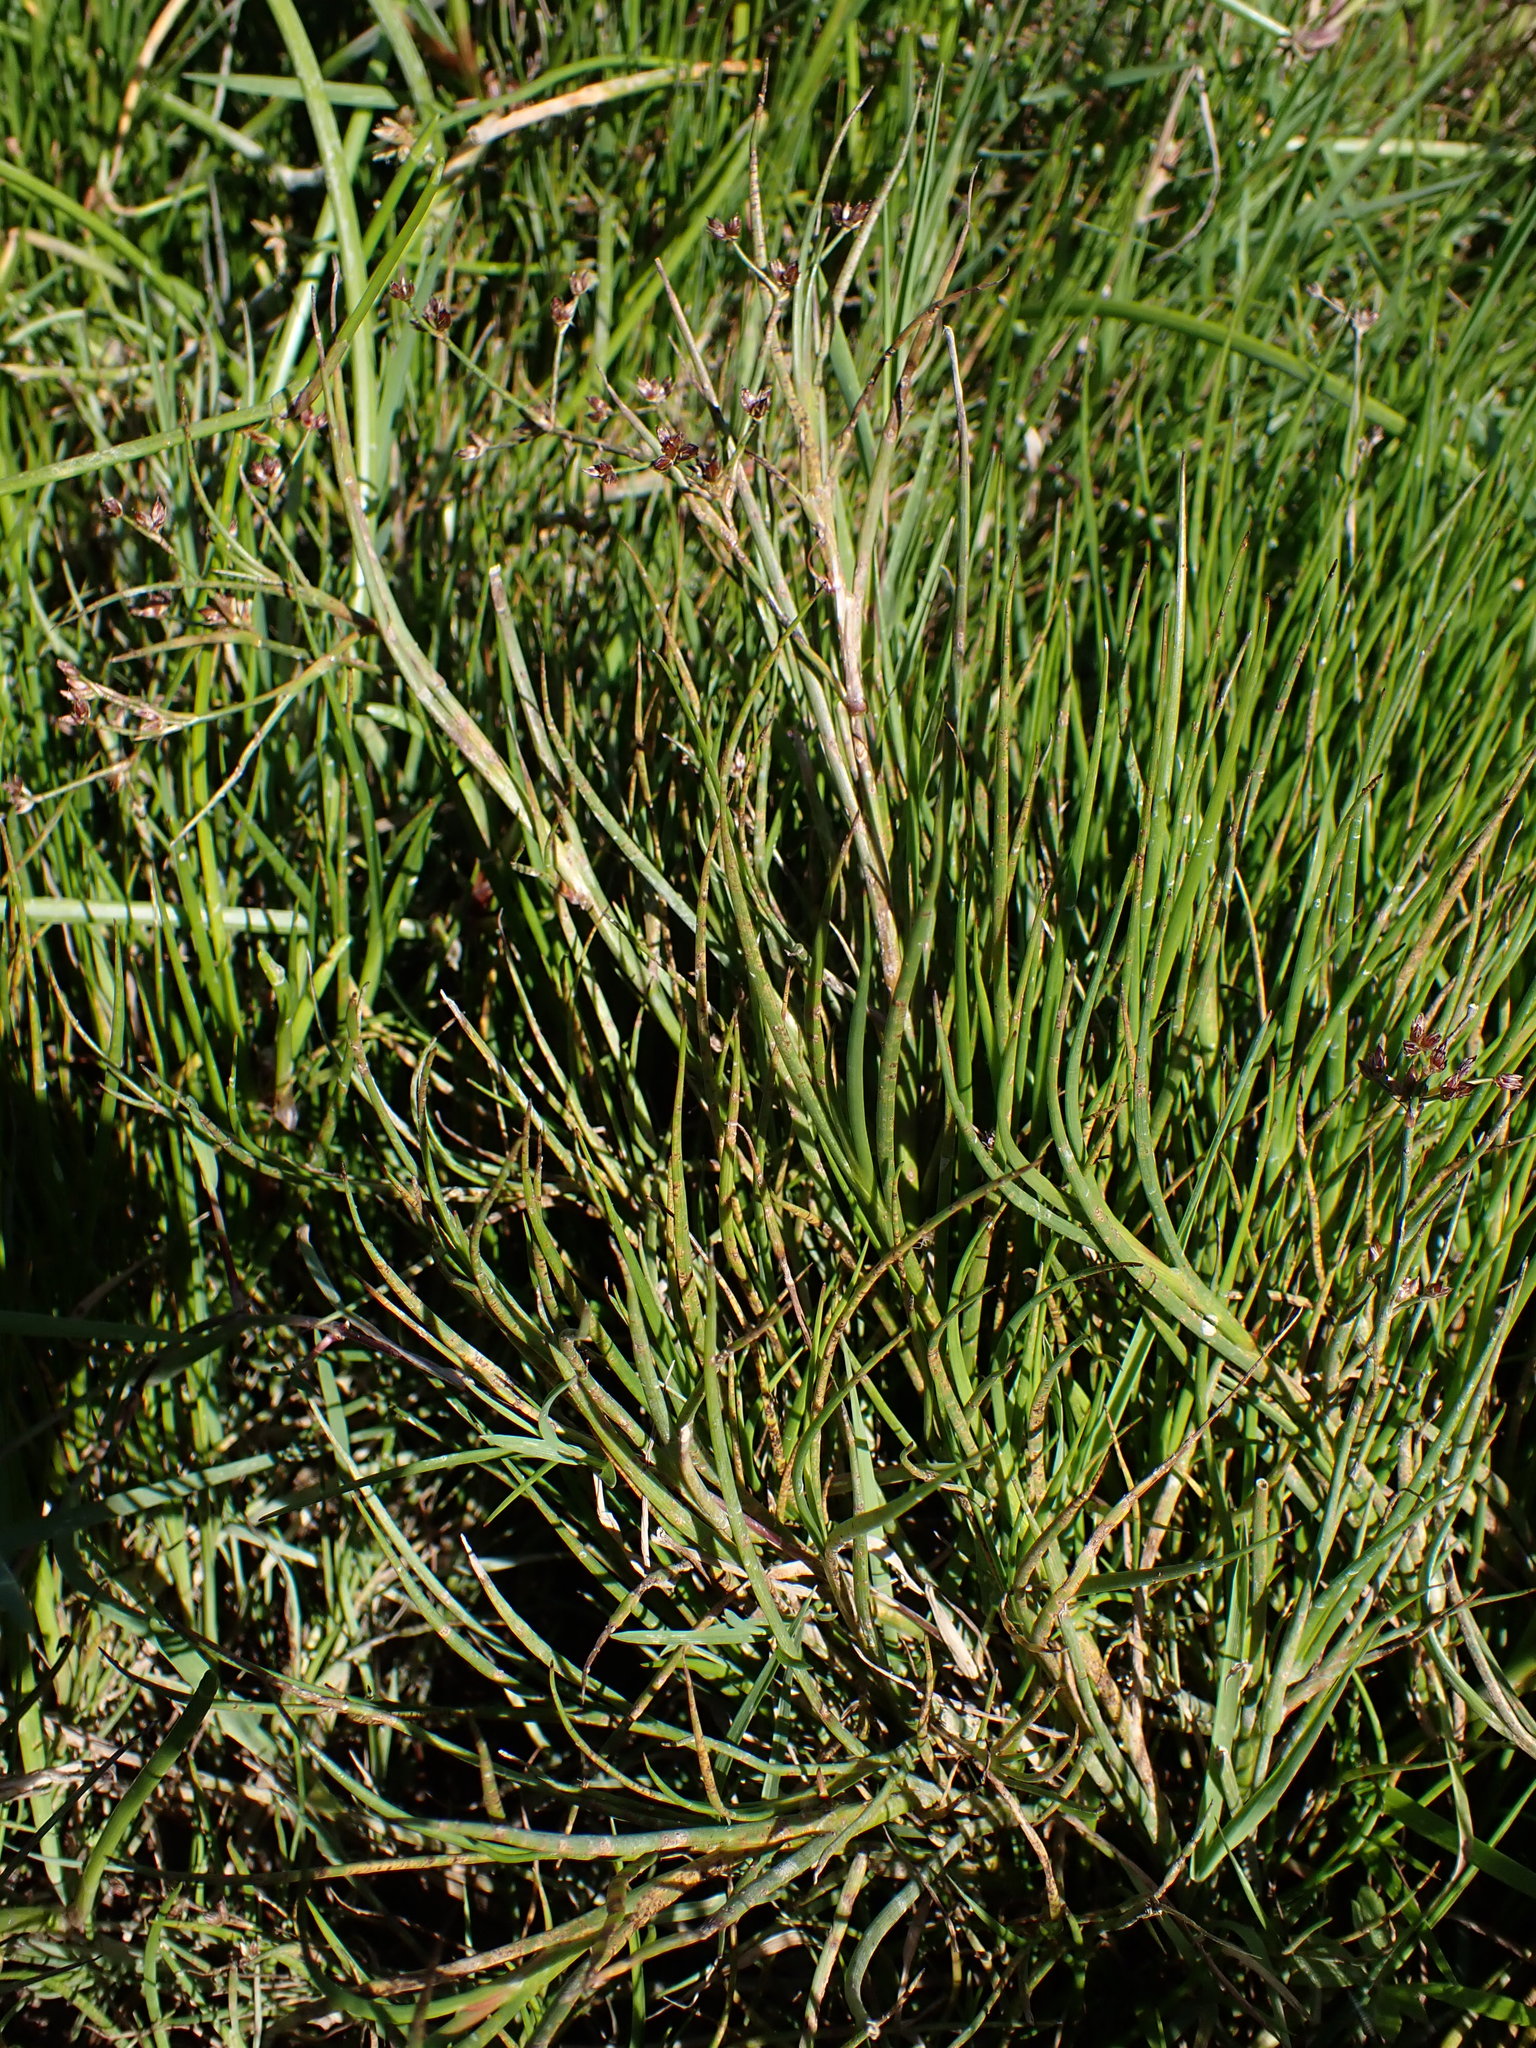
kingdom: Plantae
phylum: Tracheophyta
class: Liliopsida
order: Poales
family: Juncaceae
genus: Juncus
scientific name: Juncus articulatus
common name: Jointed rush
